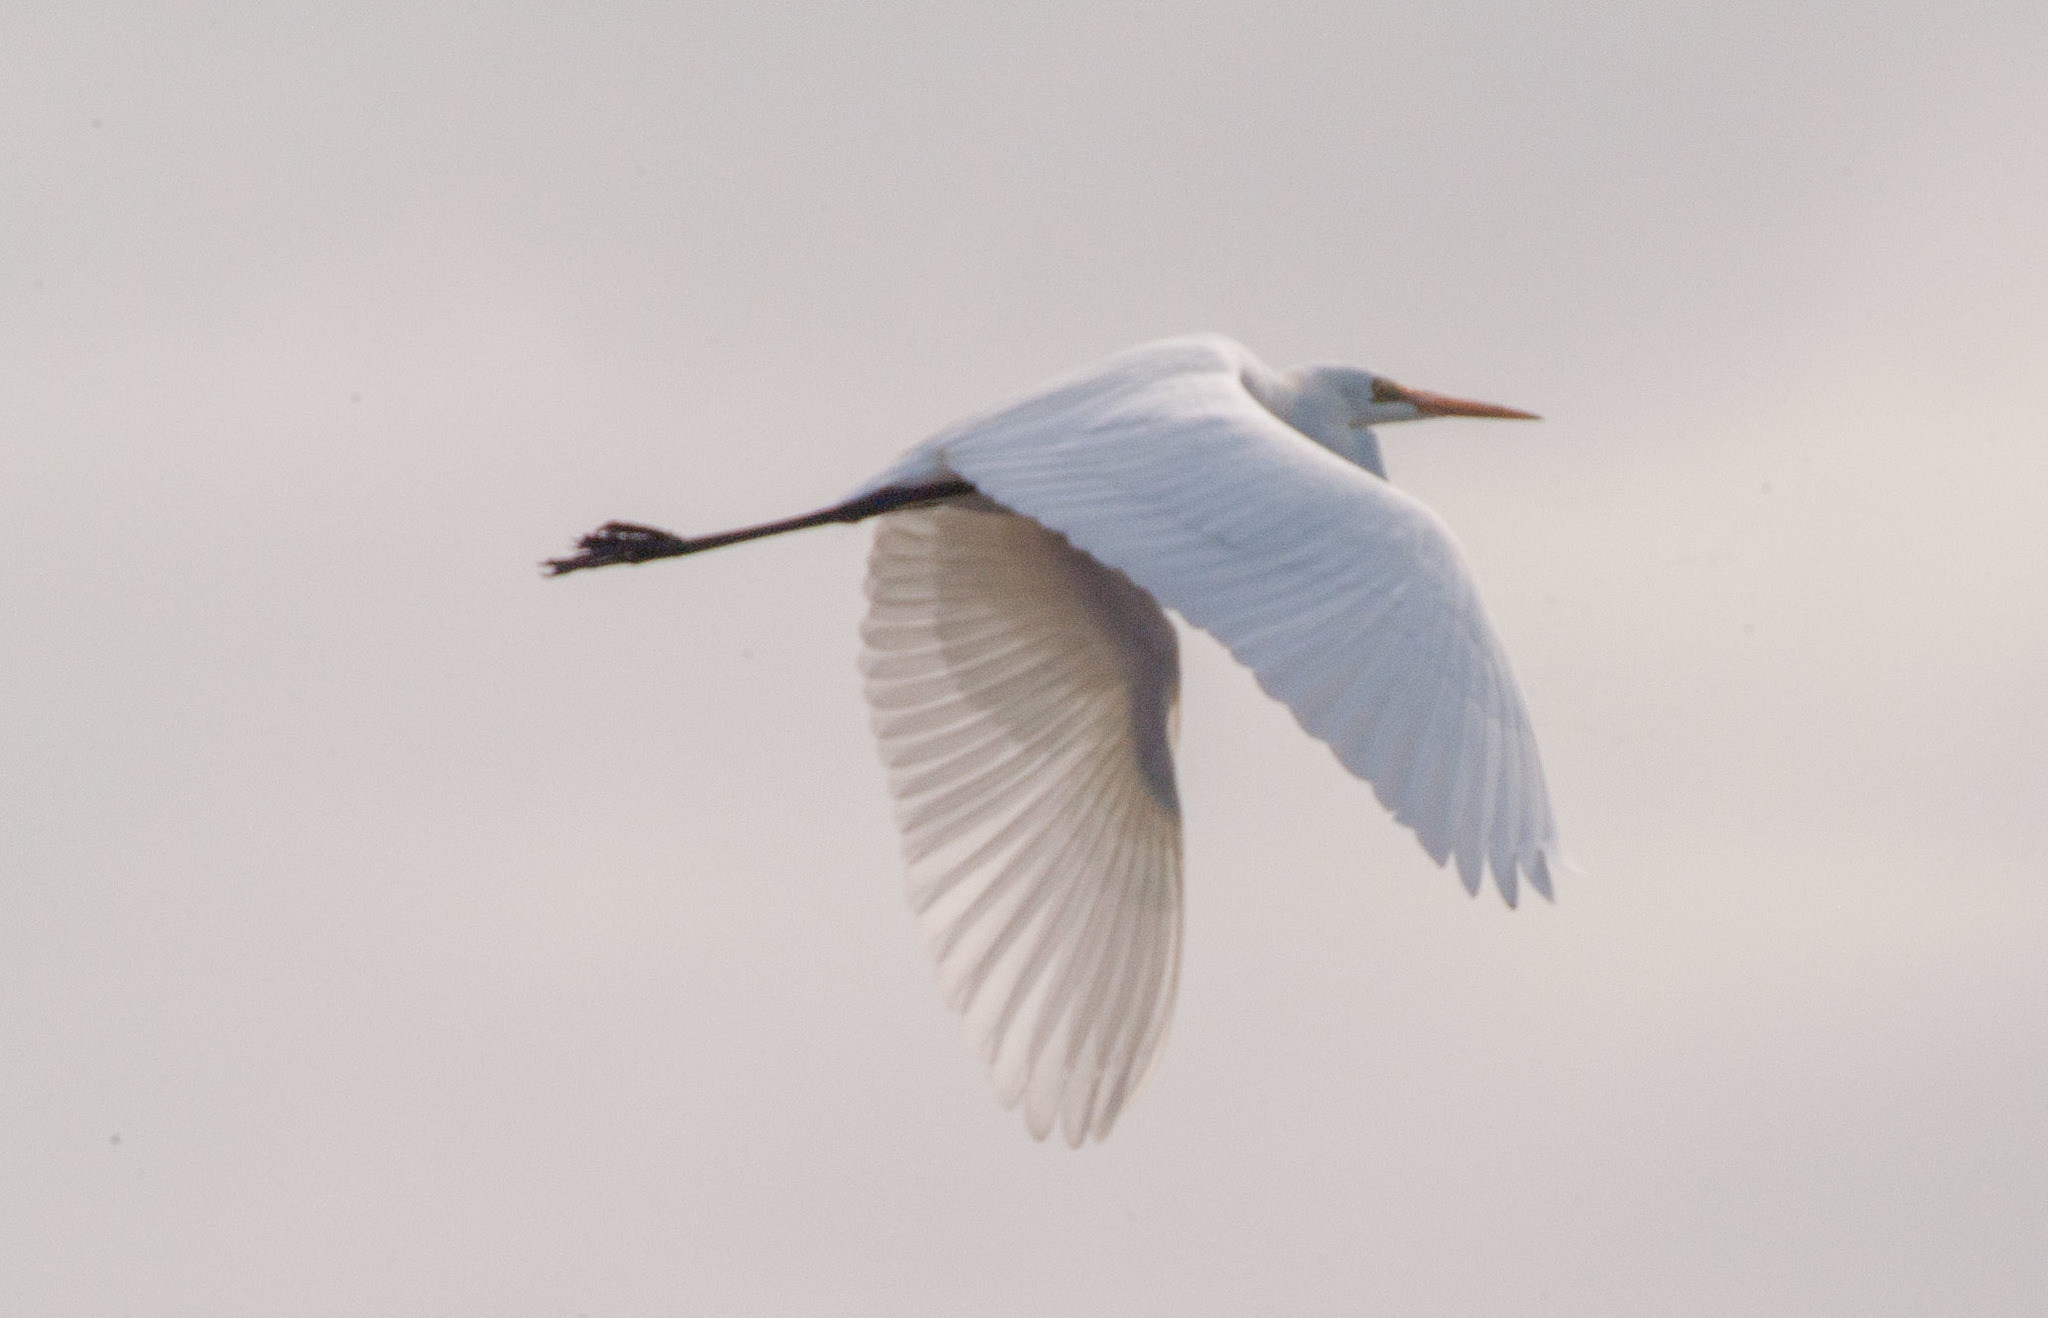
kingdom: Animalia
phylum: Chordata
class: Aves
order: Pelecaniformes
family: Ardeidae
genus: Ardea
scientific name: Ardea modesta
